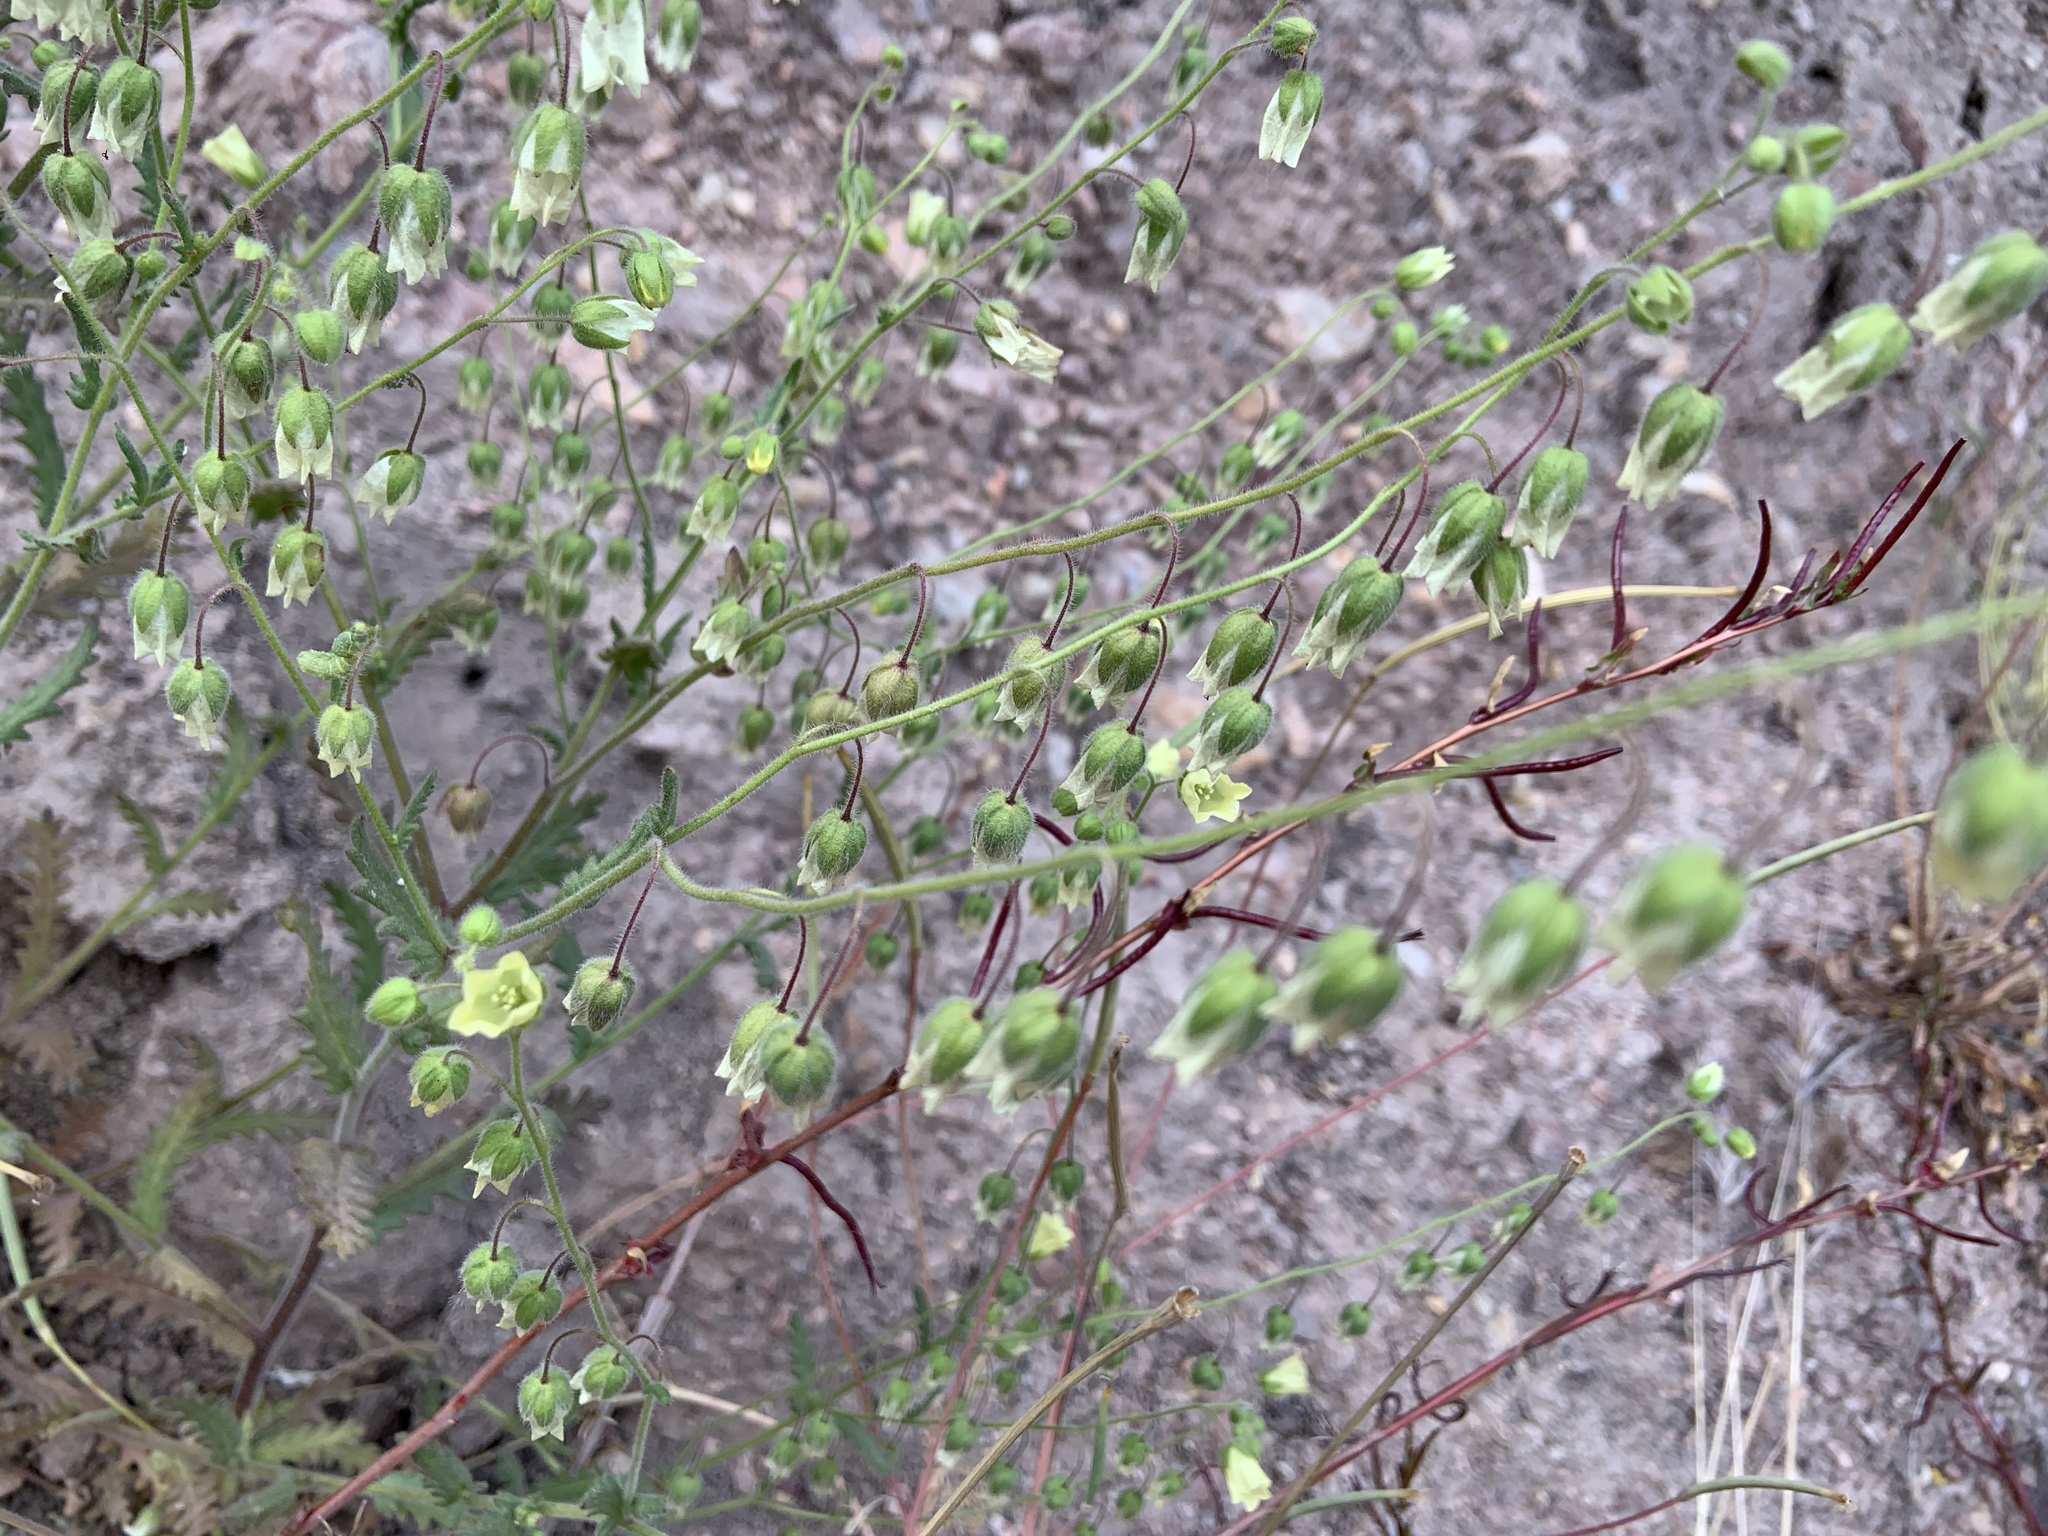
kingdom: Plantae
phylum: Tracheophyta
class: Magnoliopsida
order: Boraginales
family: Hydrophyllaceae
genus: Emmenanthe
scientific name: Emmenanthe penduliflora
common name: Whispering-bells
